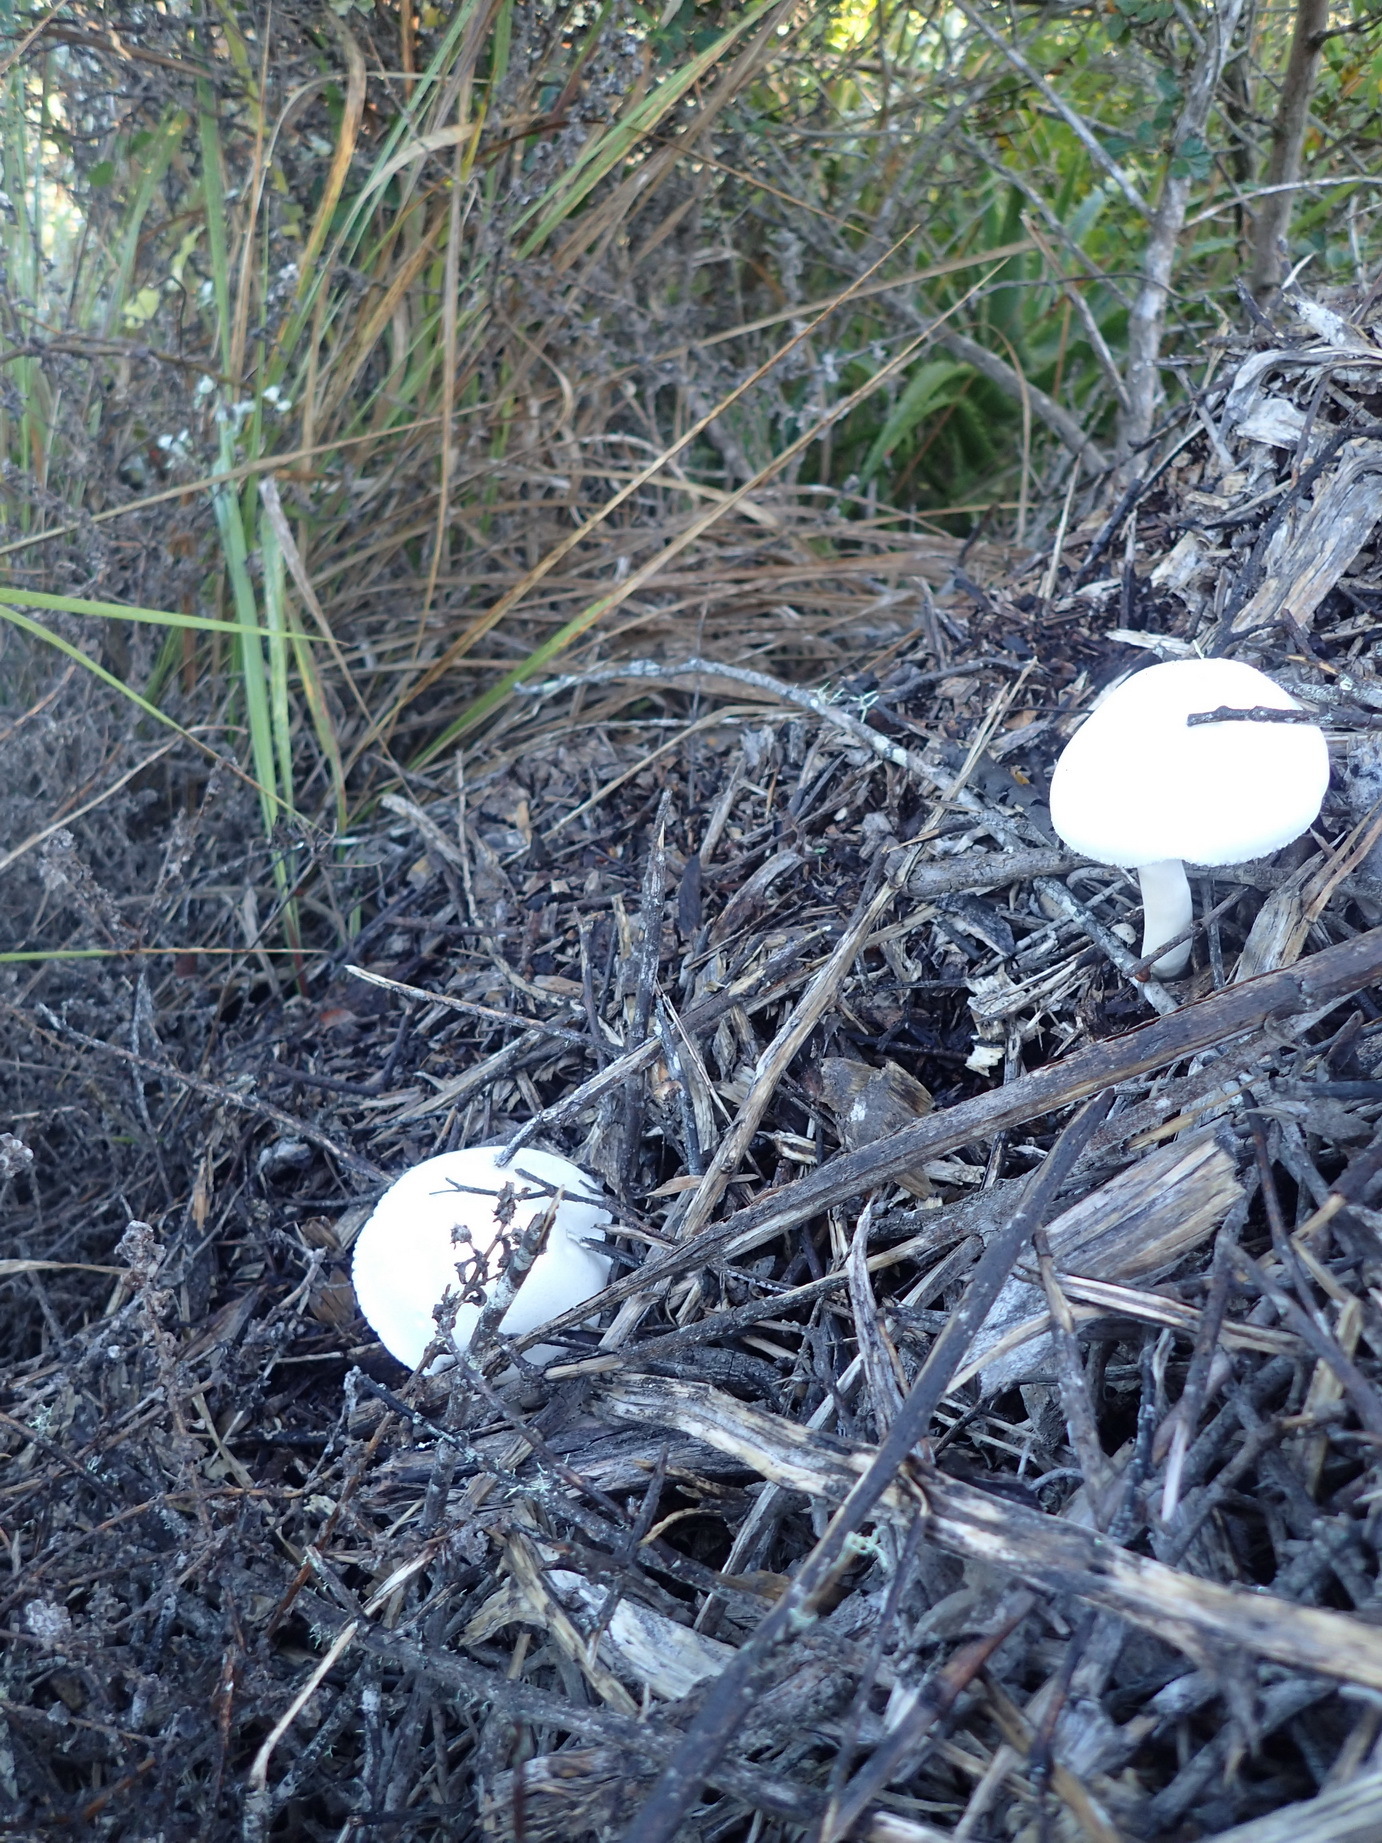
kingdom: Fungi
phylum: Basidiomycota
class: Agaricomycetes
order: Agaricales
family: Agaricaceae
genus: Leucoagaricus
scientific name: Leucoagaricus leucothites
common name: White dapperling
